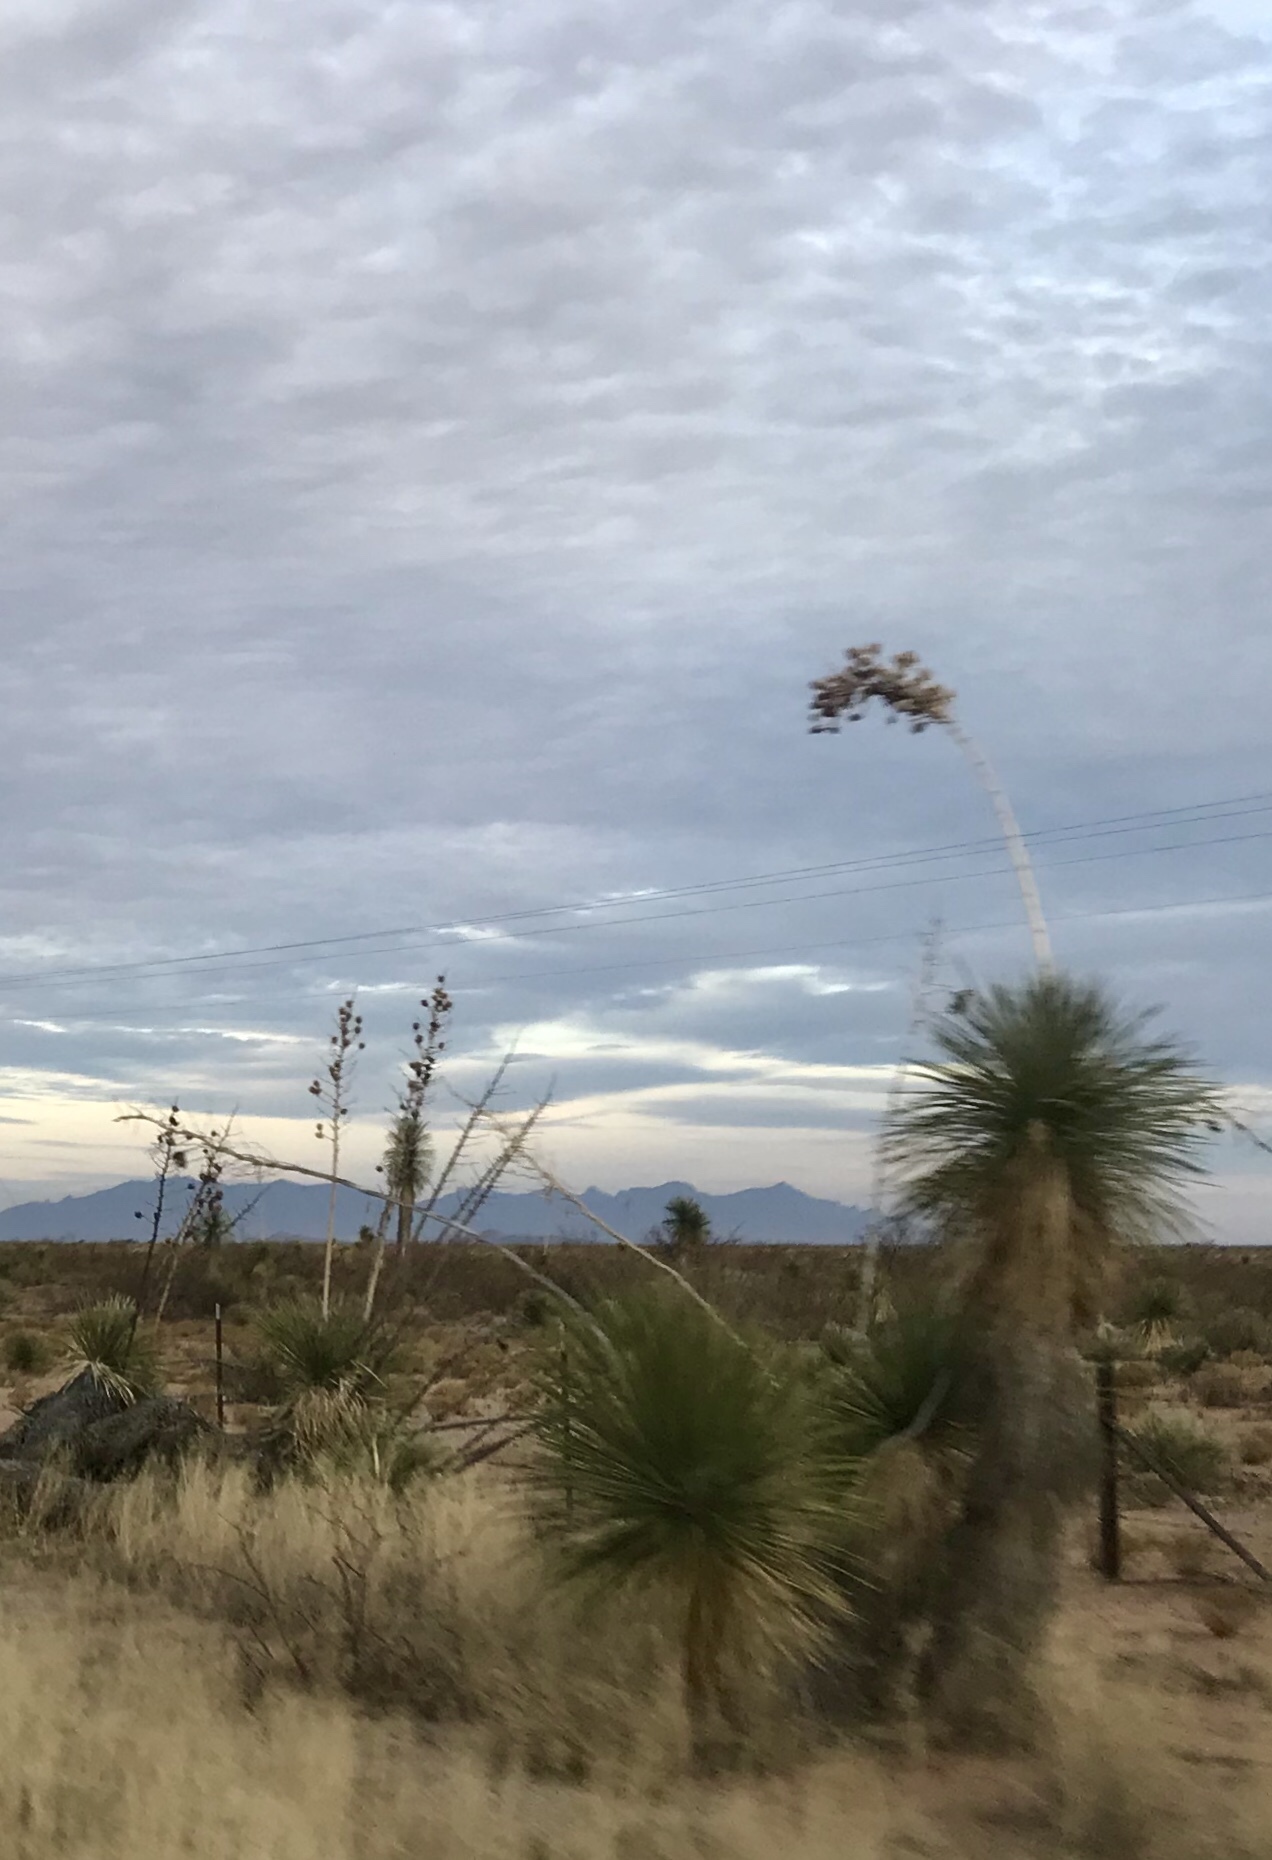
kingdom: Plantae
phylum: Tracheophyta
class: Liliopsida
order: Asparagales
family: Asparagaceae
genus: Yucca
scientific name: Yucca elata
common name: Palmella
